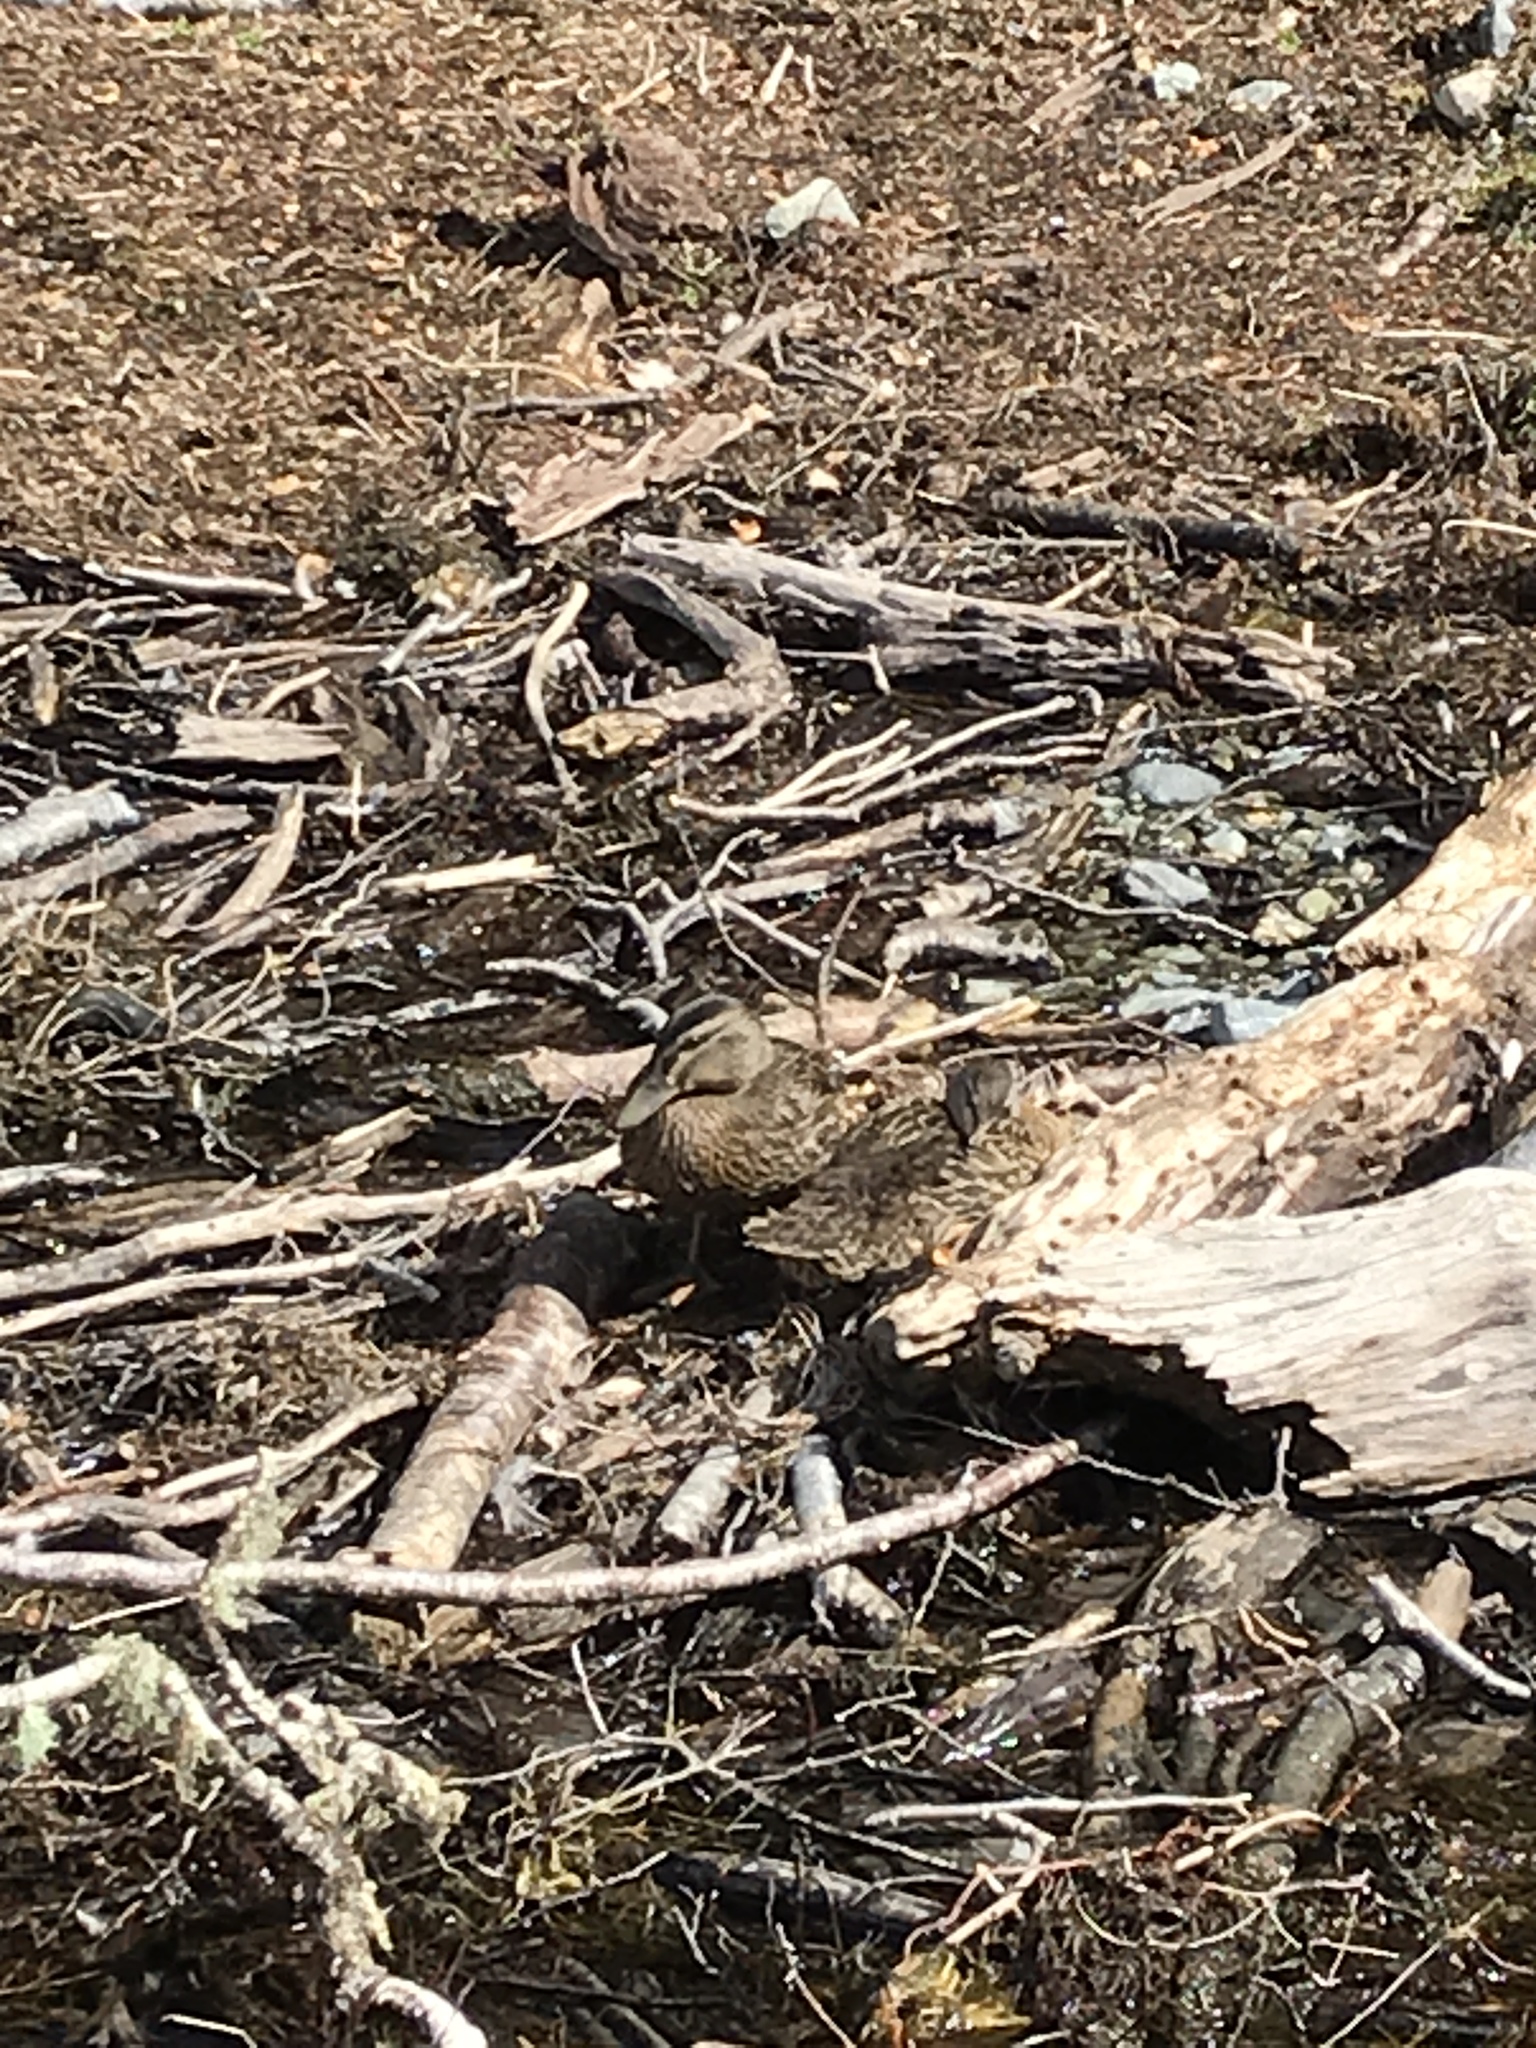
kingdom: Animalia
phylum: Chordata
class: Aves
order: Anseriformes
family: Anatidae
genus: Anas
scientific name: Anas
